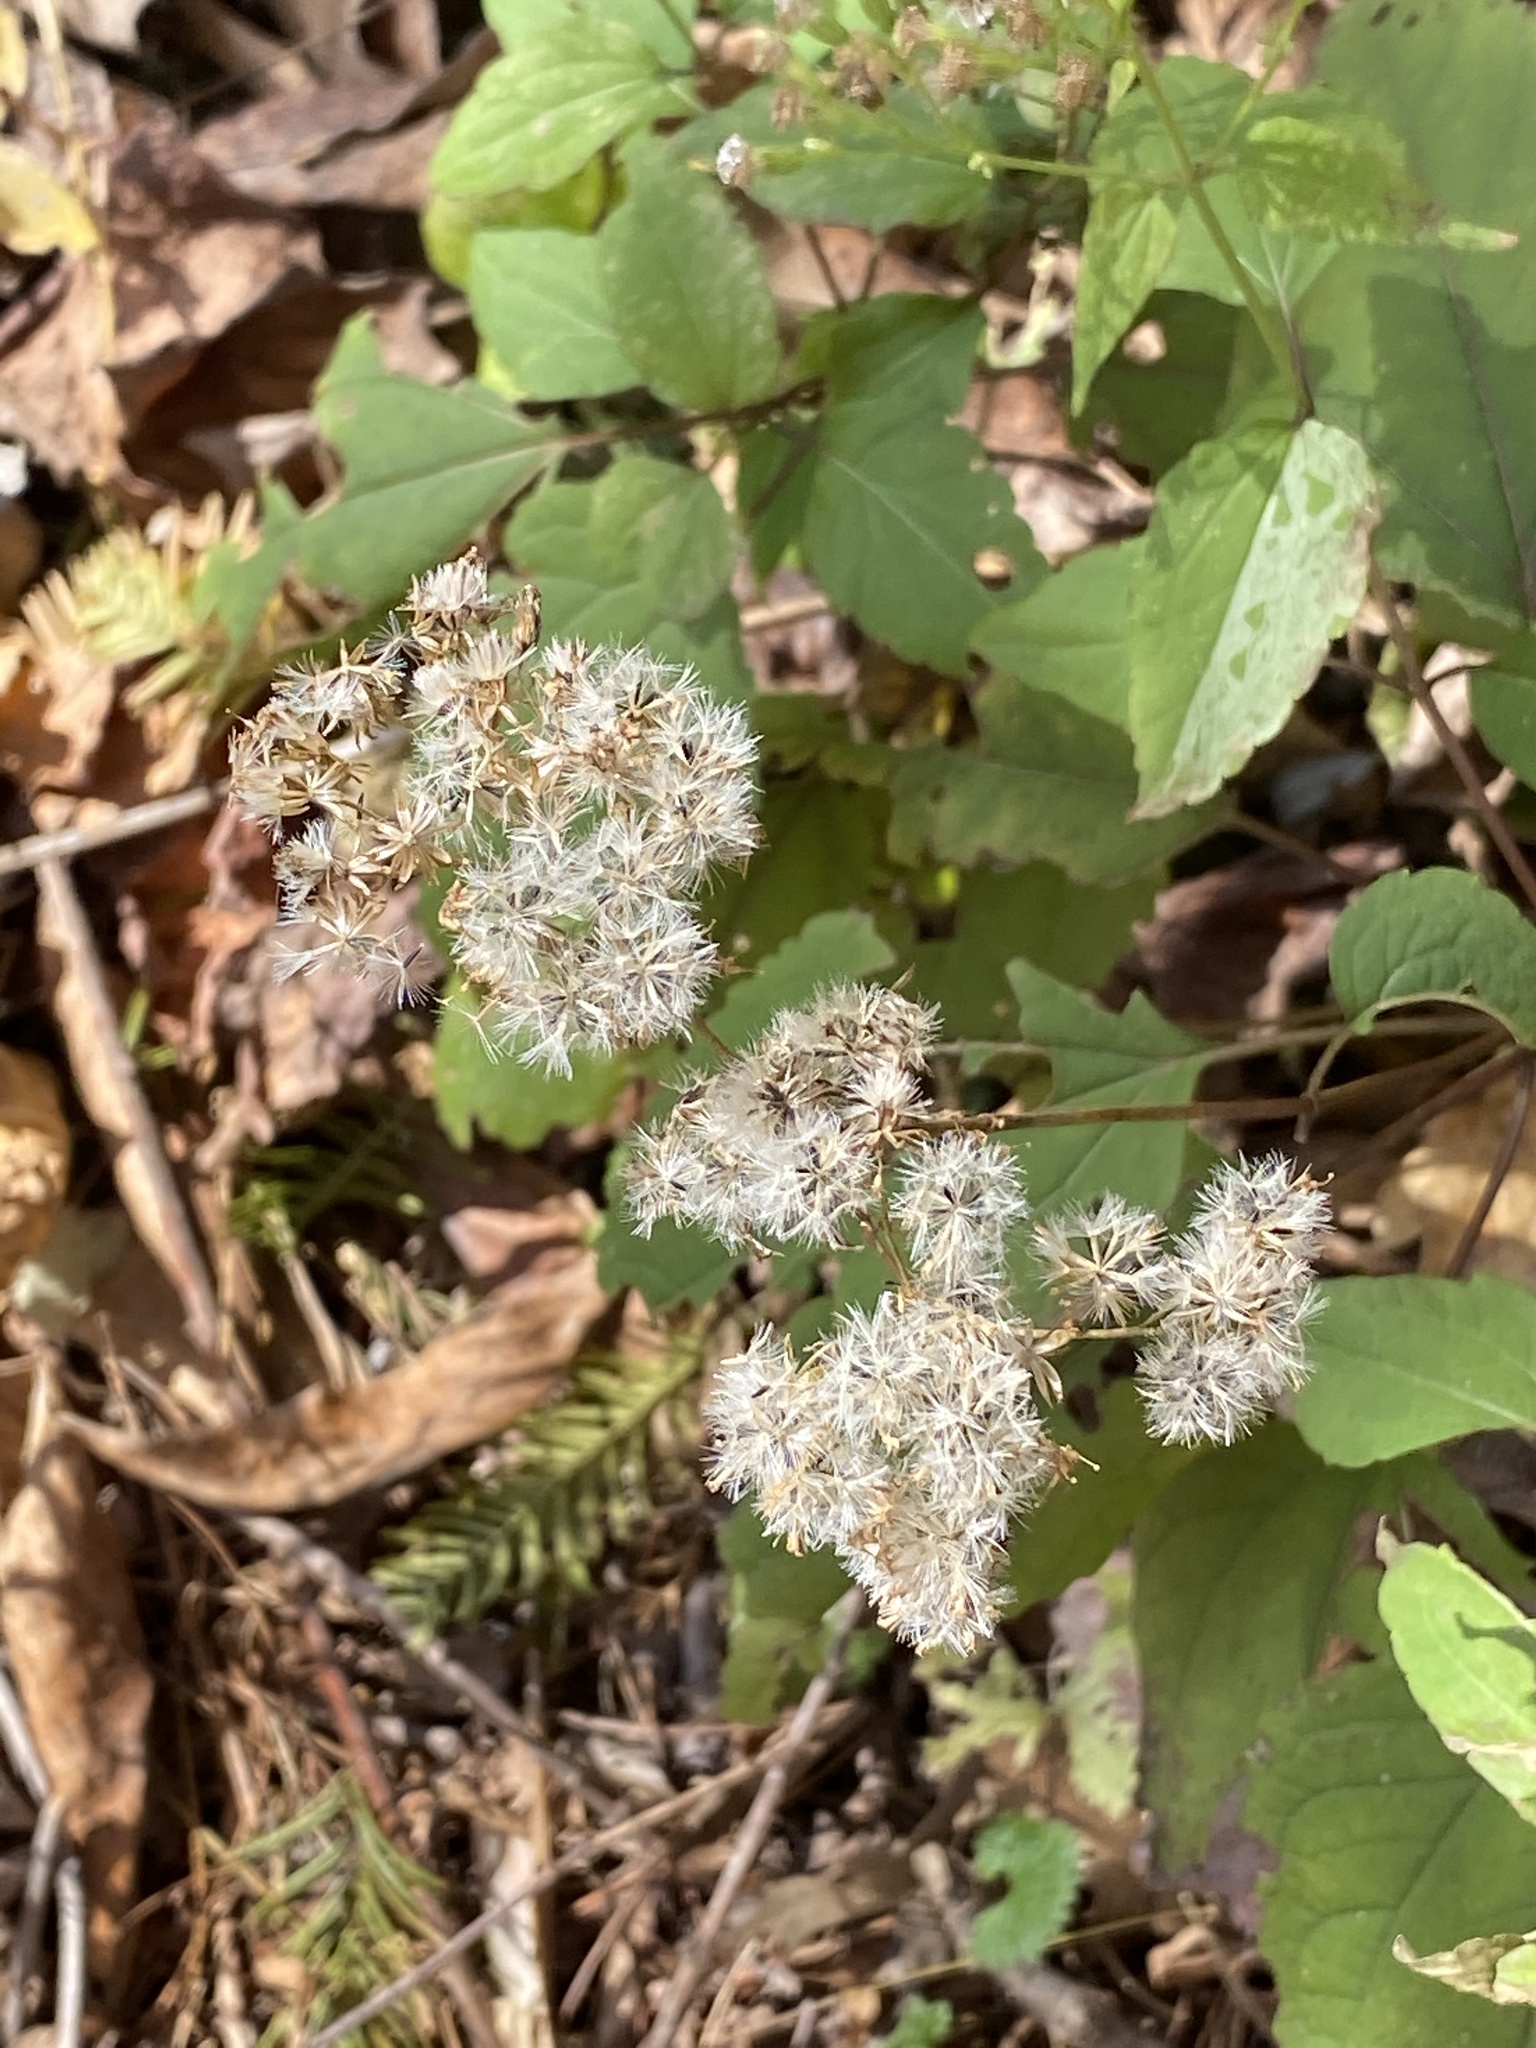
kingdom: Plantae
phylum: Tracheophyta
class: Magnoliopsida
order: Asterales
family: Asteraceae
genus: Ageratina
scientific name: Ageratina altissima
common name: White snakeroot
